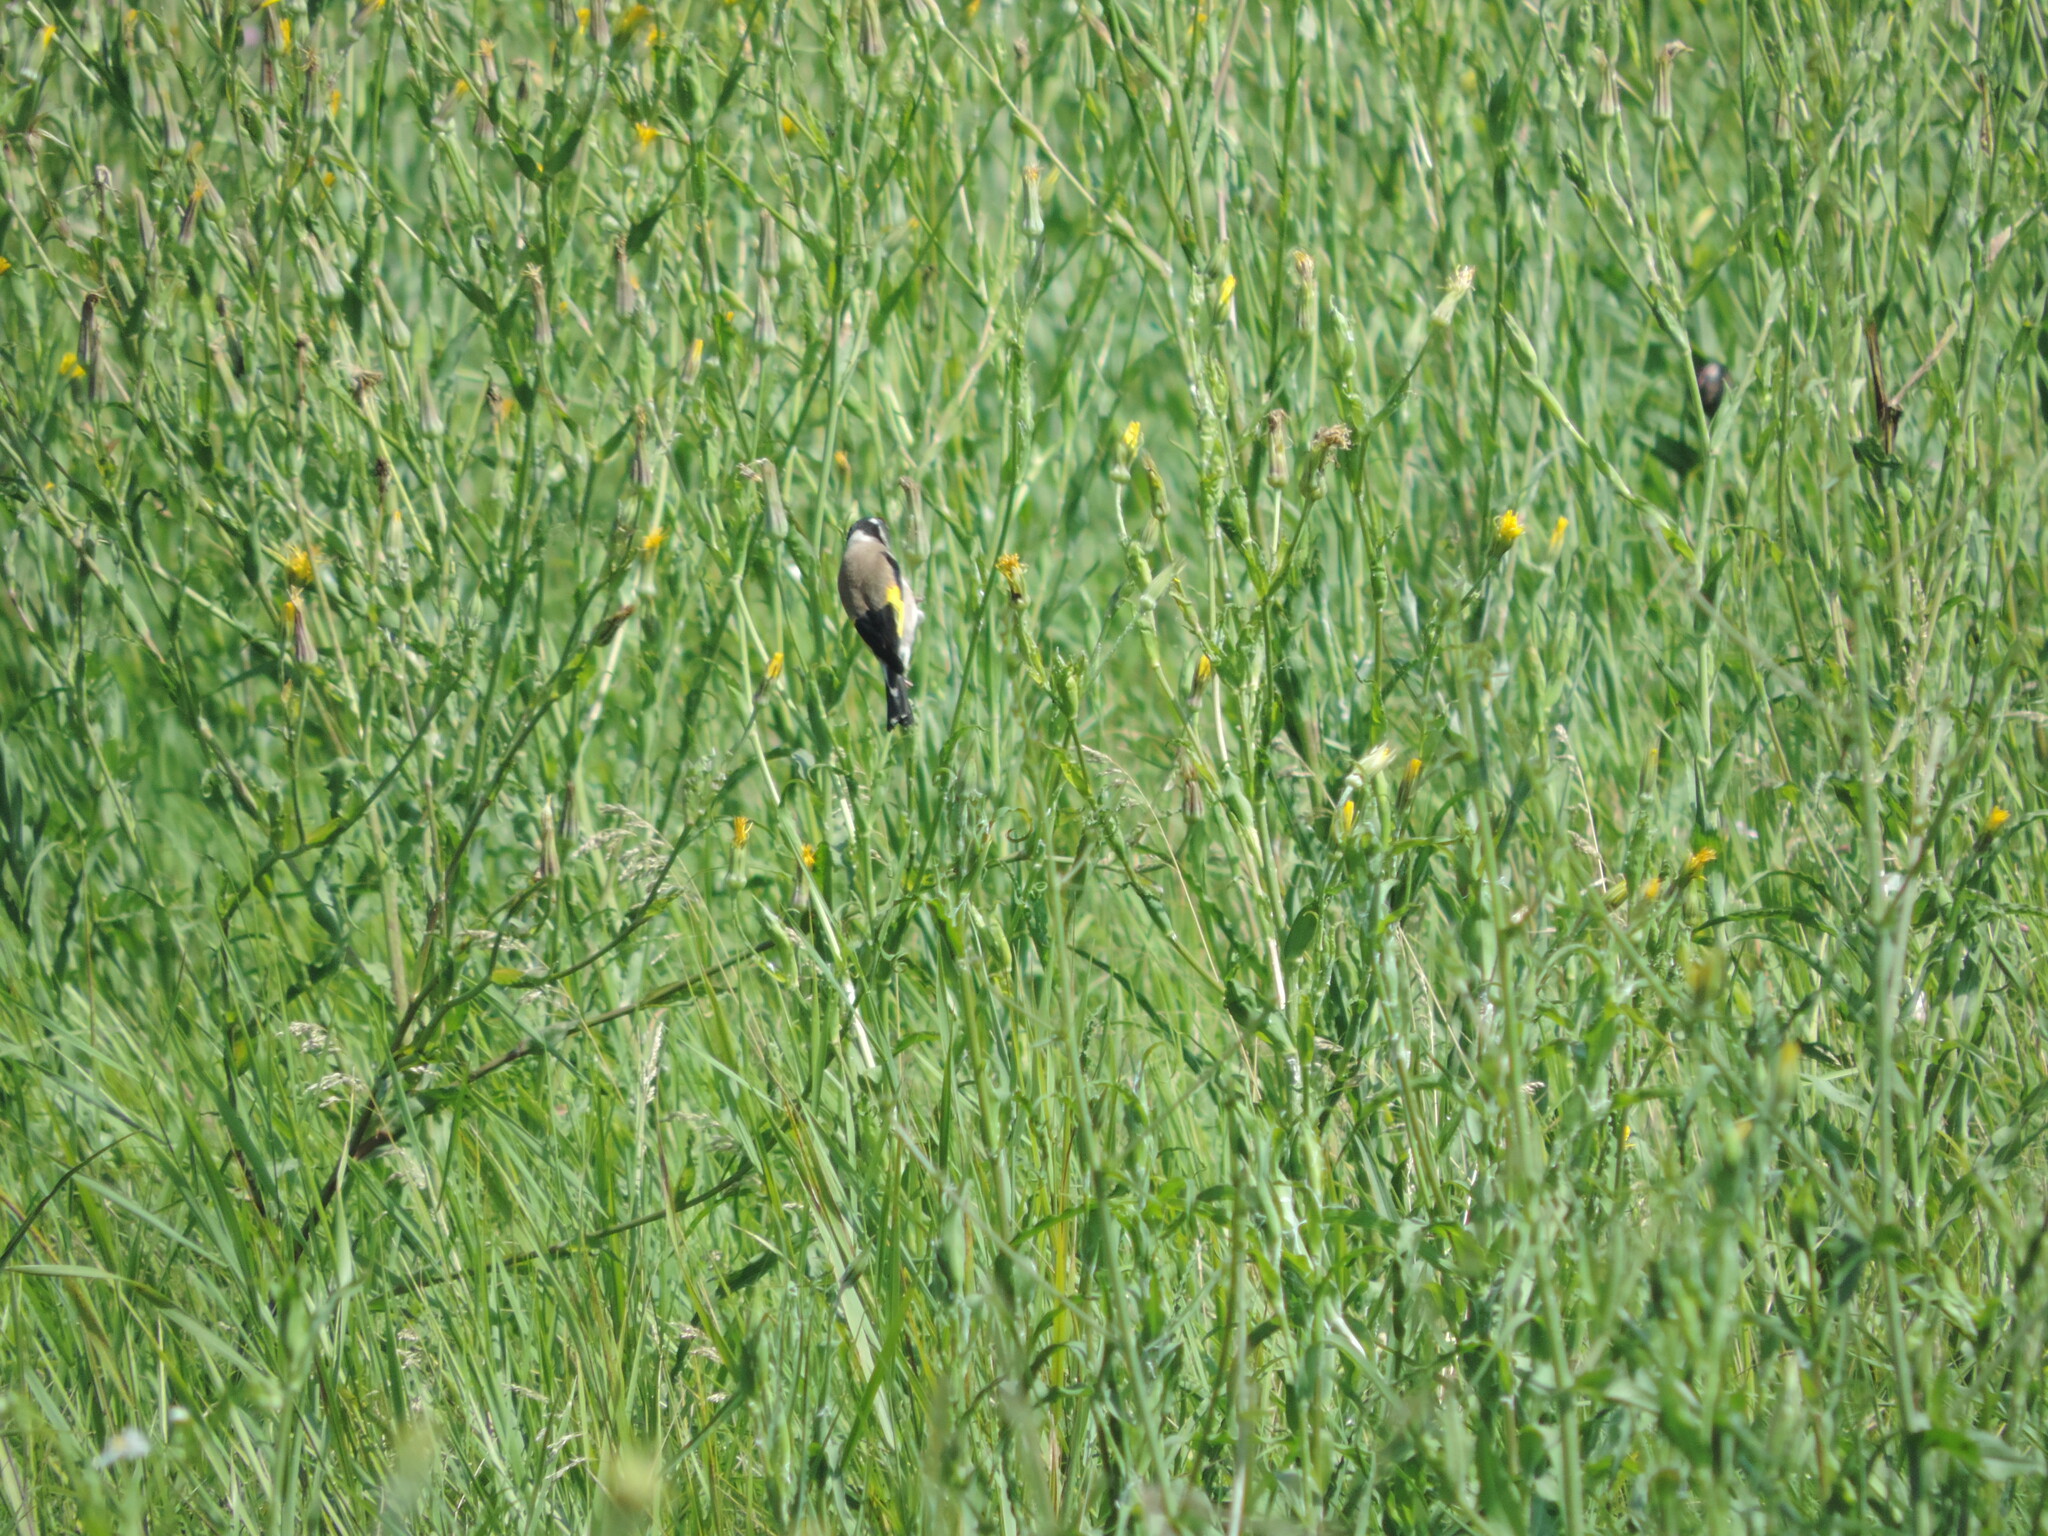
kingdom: Animalia
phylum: Chordata
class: Aves
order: Passeriformes
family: Fringillidae
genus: Carduelis
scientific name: Carduelis carduelis
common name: European goldfinch
